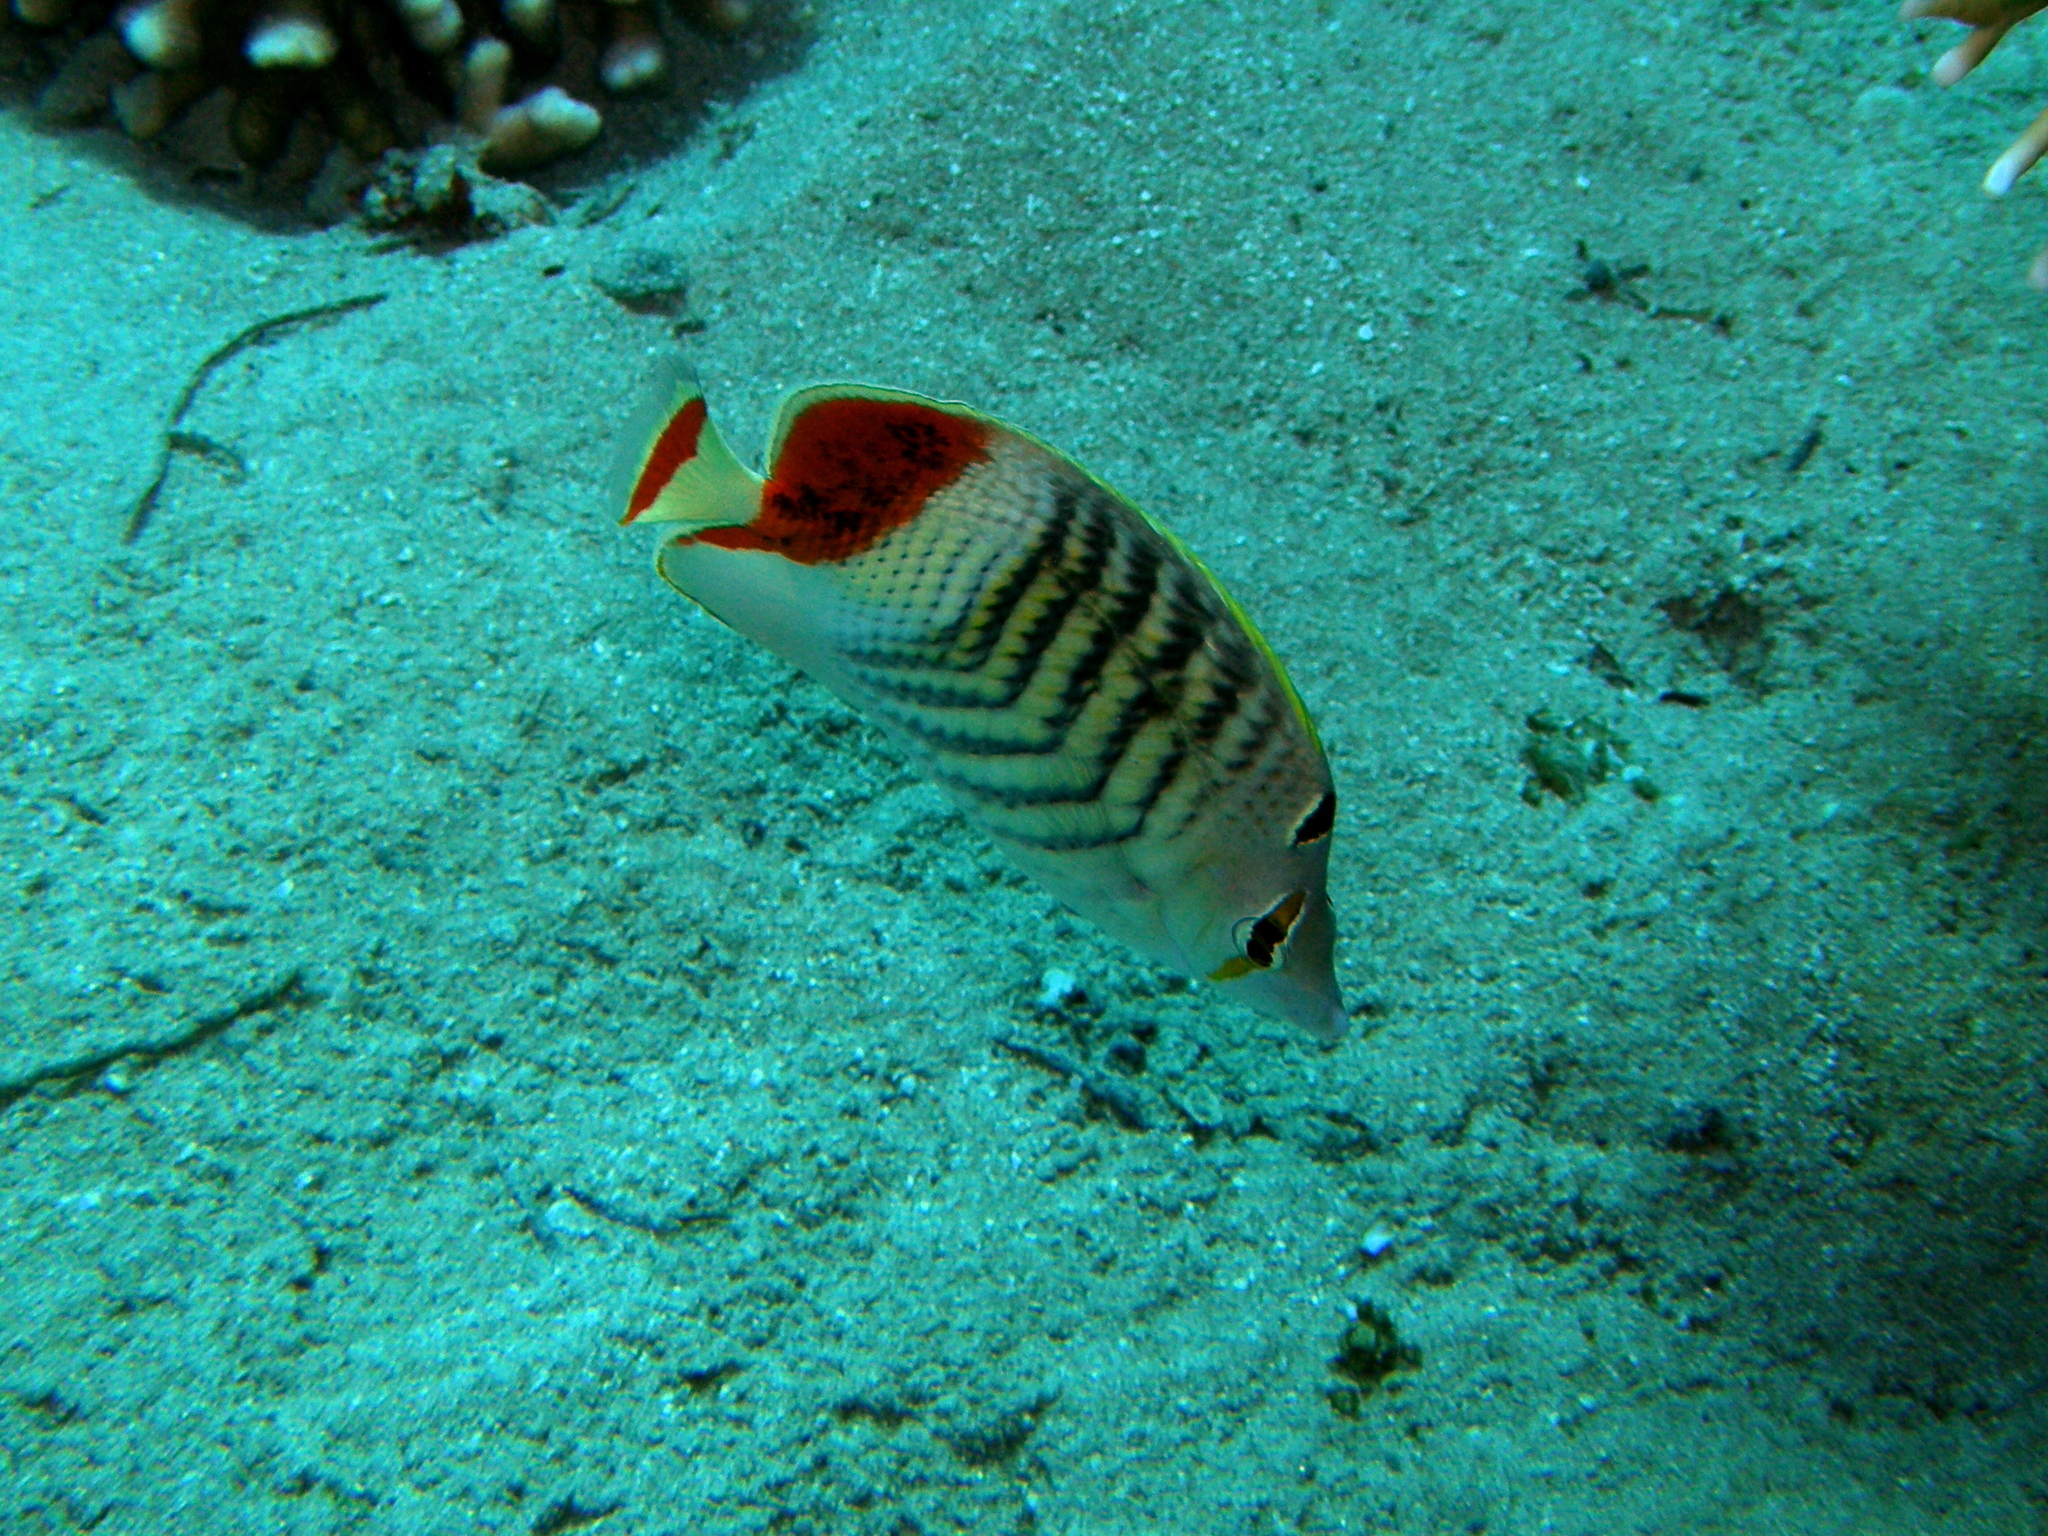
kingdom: Animalia
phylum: Chordata
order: Perciformes
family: Chaetodontidae
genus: Chaetodon
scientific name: Chaetodon paucifasciatus
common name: Crown butterflyfish
